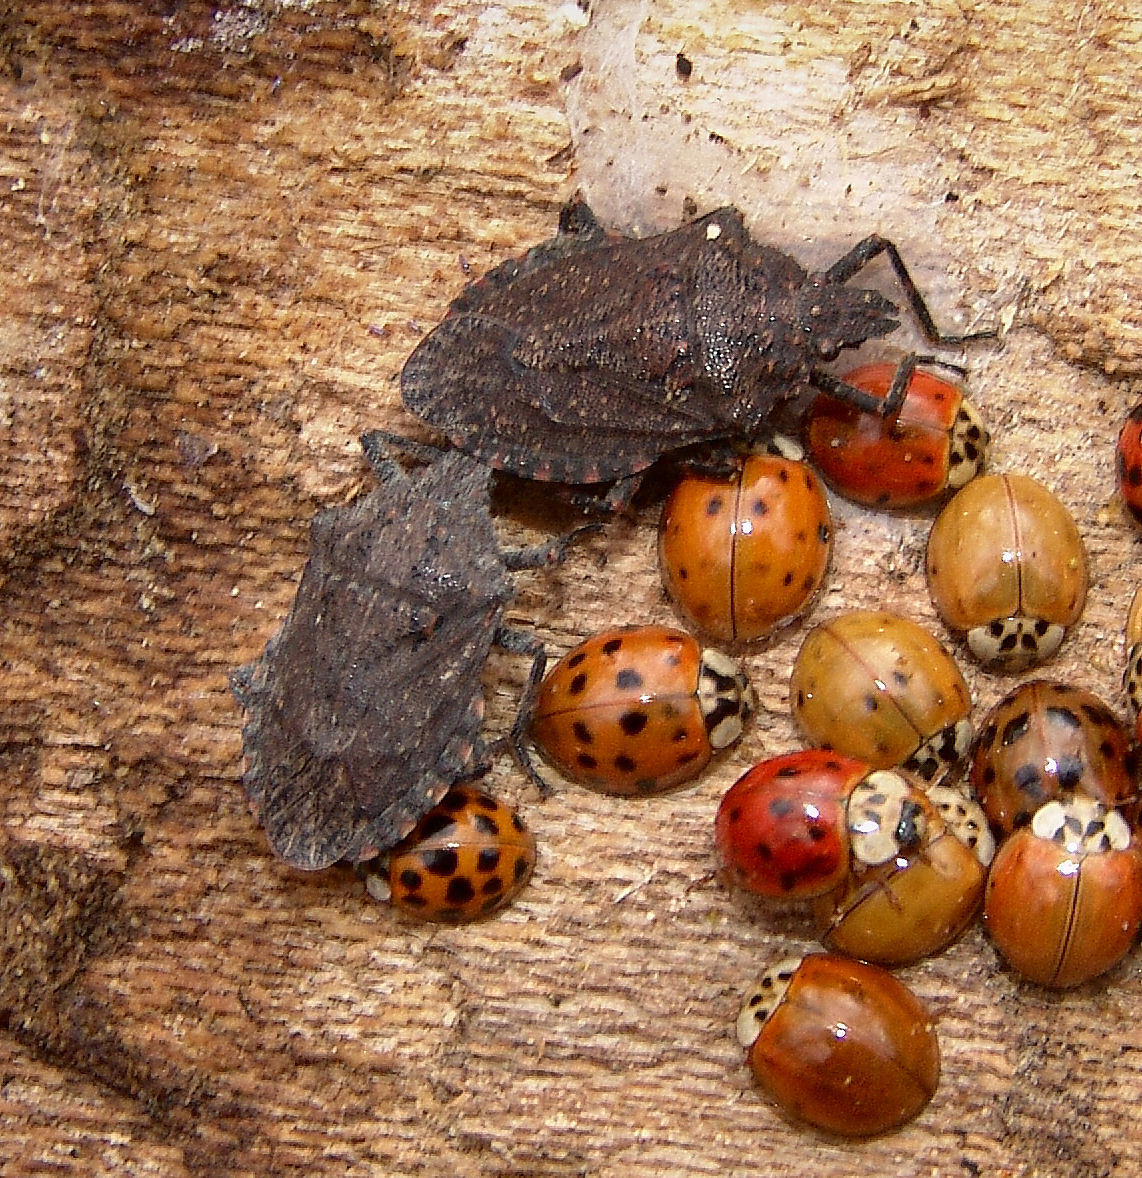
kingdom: Animalia
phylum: Arthropoda
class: Insecta
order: Hemiptera
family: Pentatomidae
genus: Brochymena
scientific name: Brochymena quadripustulata
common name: Four-humped stink bug
